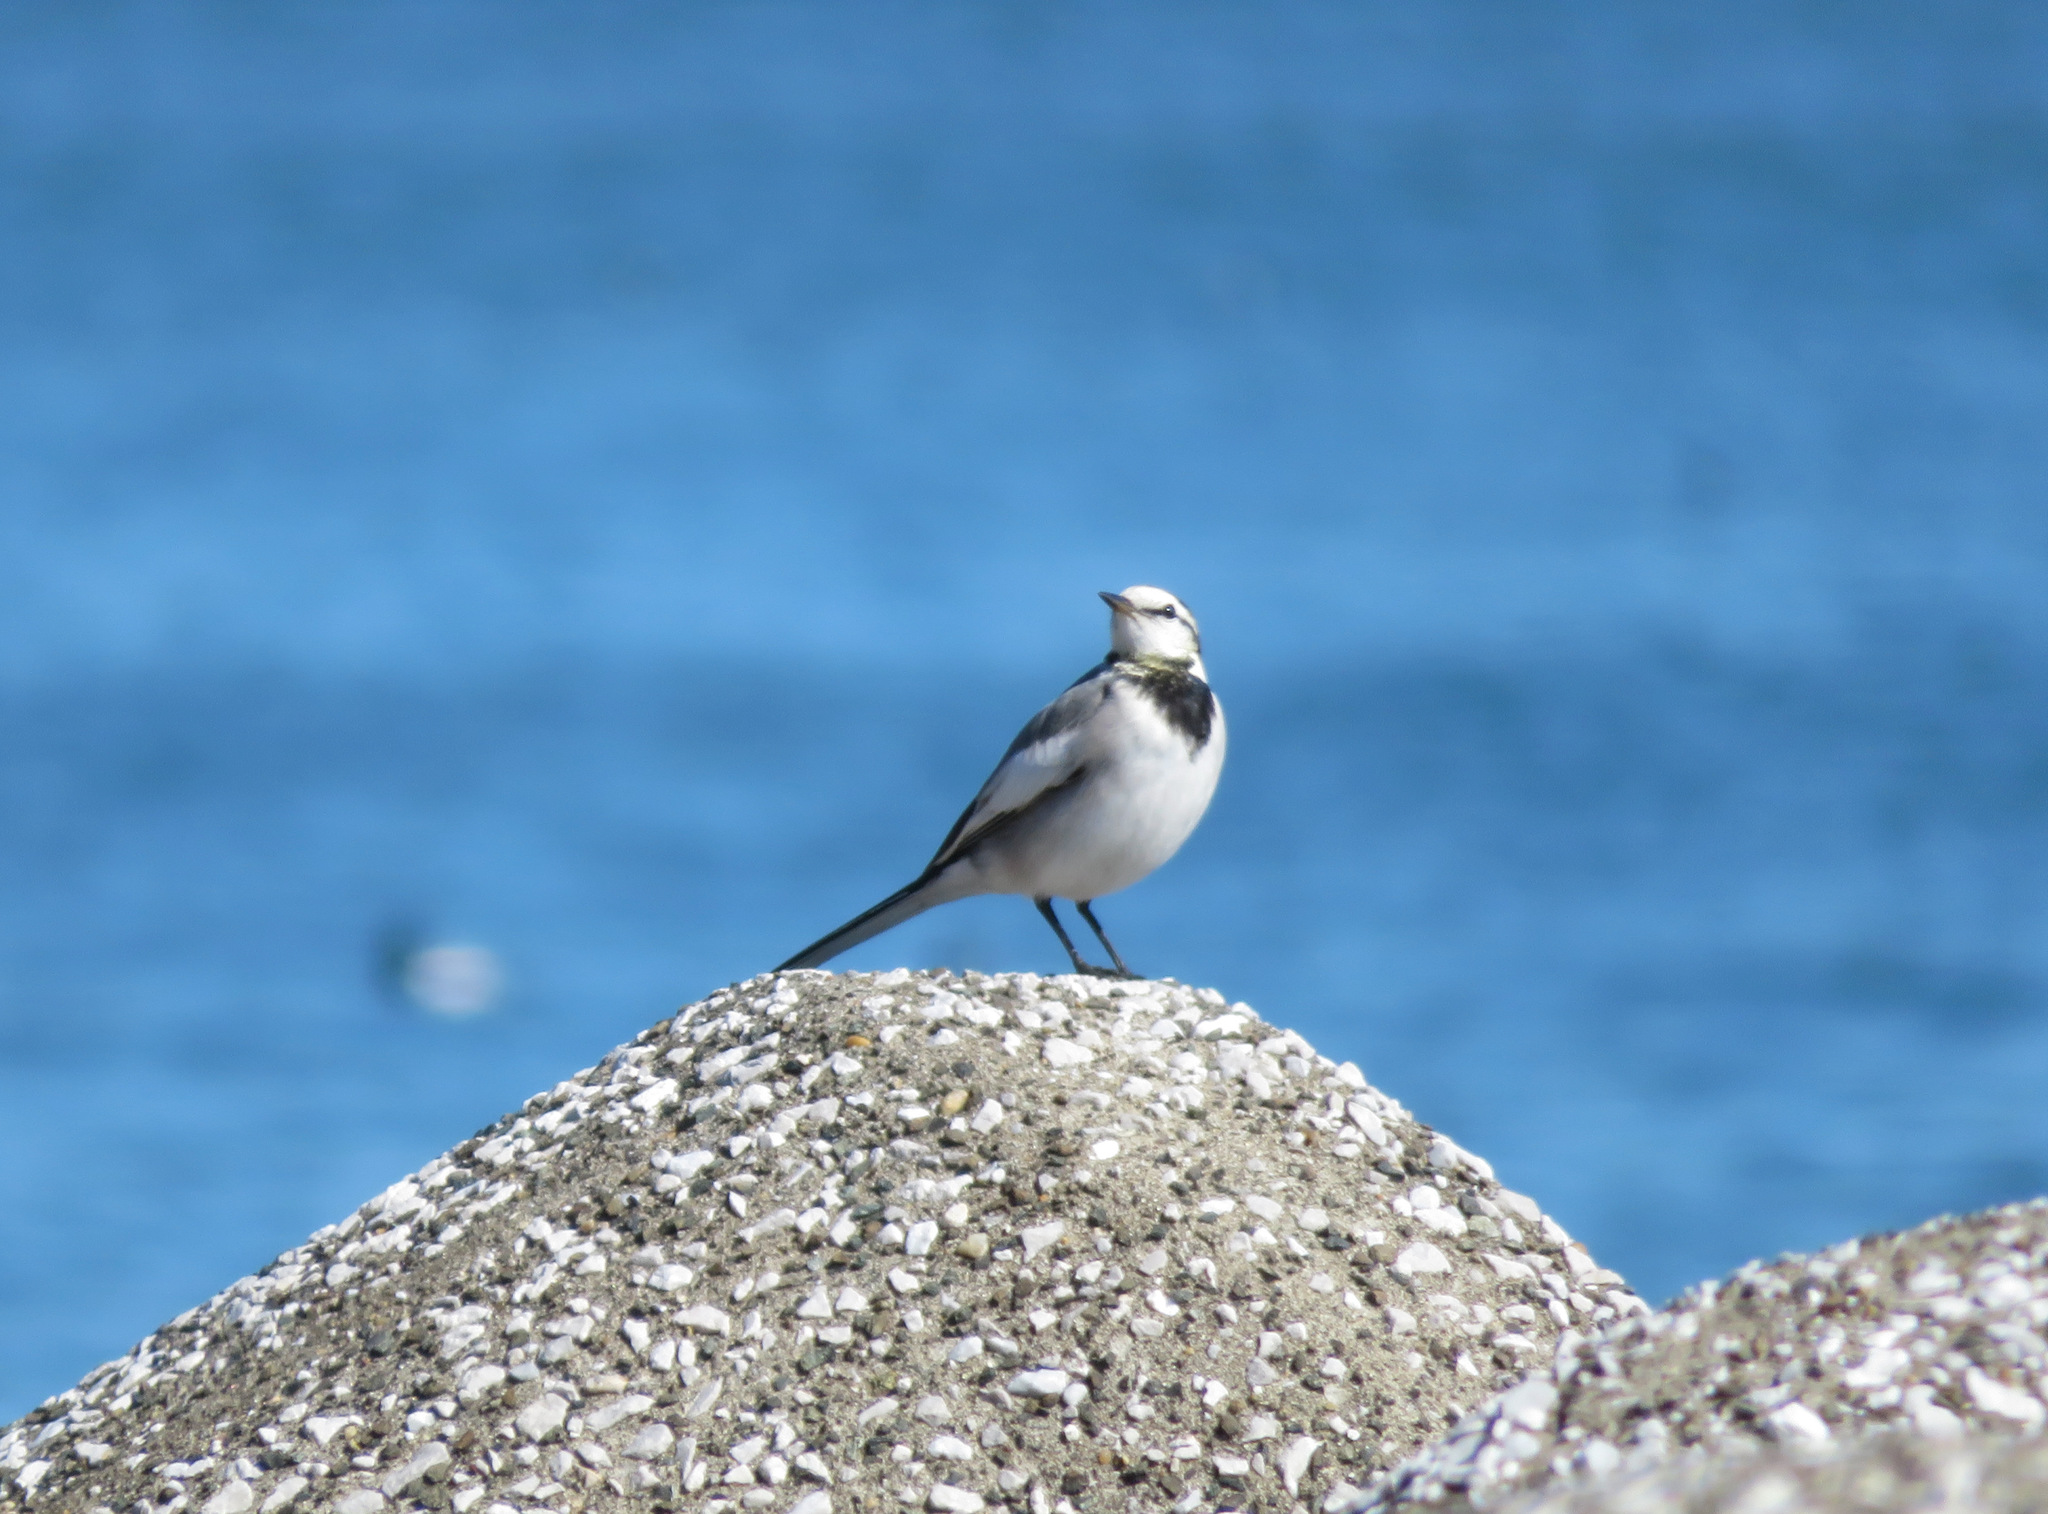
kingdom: Animalia
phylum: Chordata
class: Aves
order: Passeriformes
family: Motacillidae
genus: Motacilla
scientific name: Motacilla alba
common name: White wagtail
